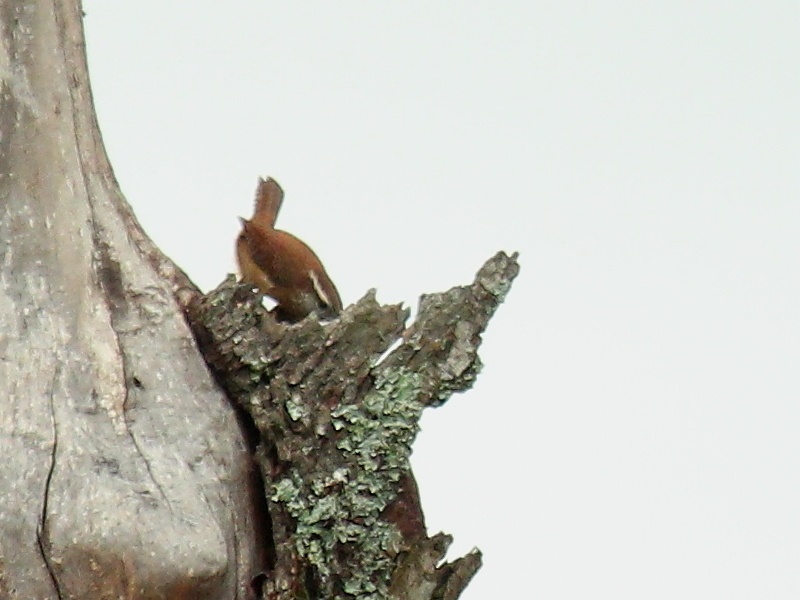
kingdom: Animalia
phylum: Chordata
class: Aves
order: Passeriformes
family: Troglodytidae
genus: Thryothorus
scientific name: Thryothorus ludovicianus
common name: Carolina wren
